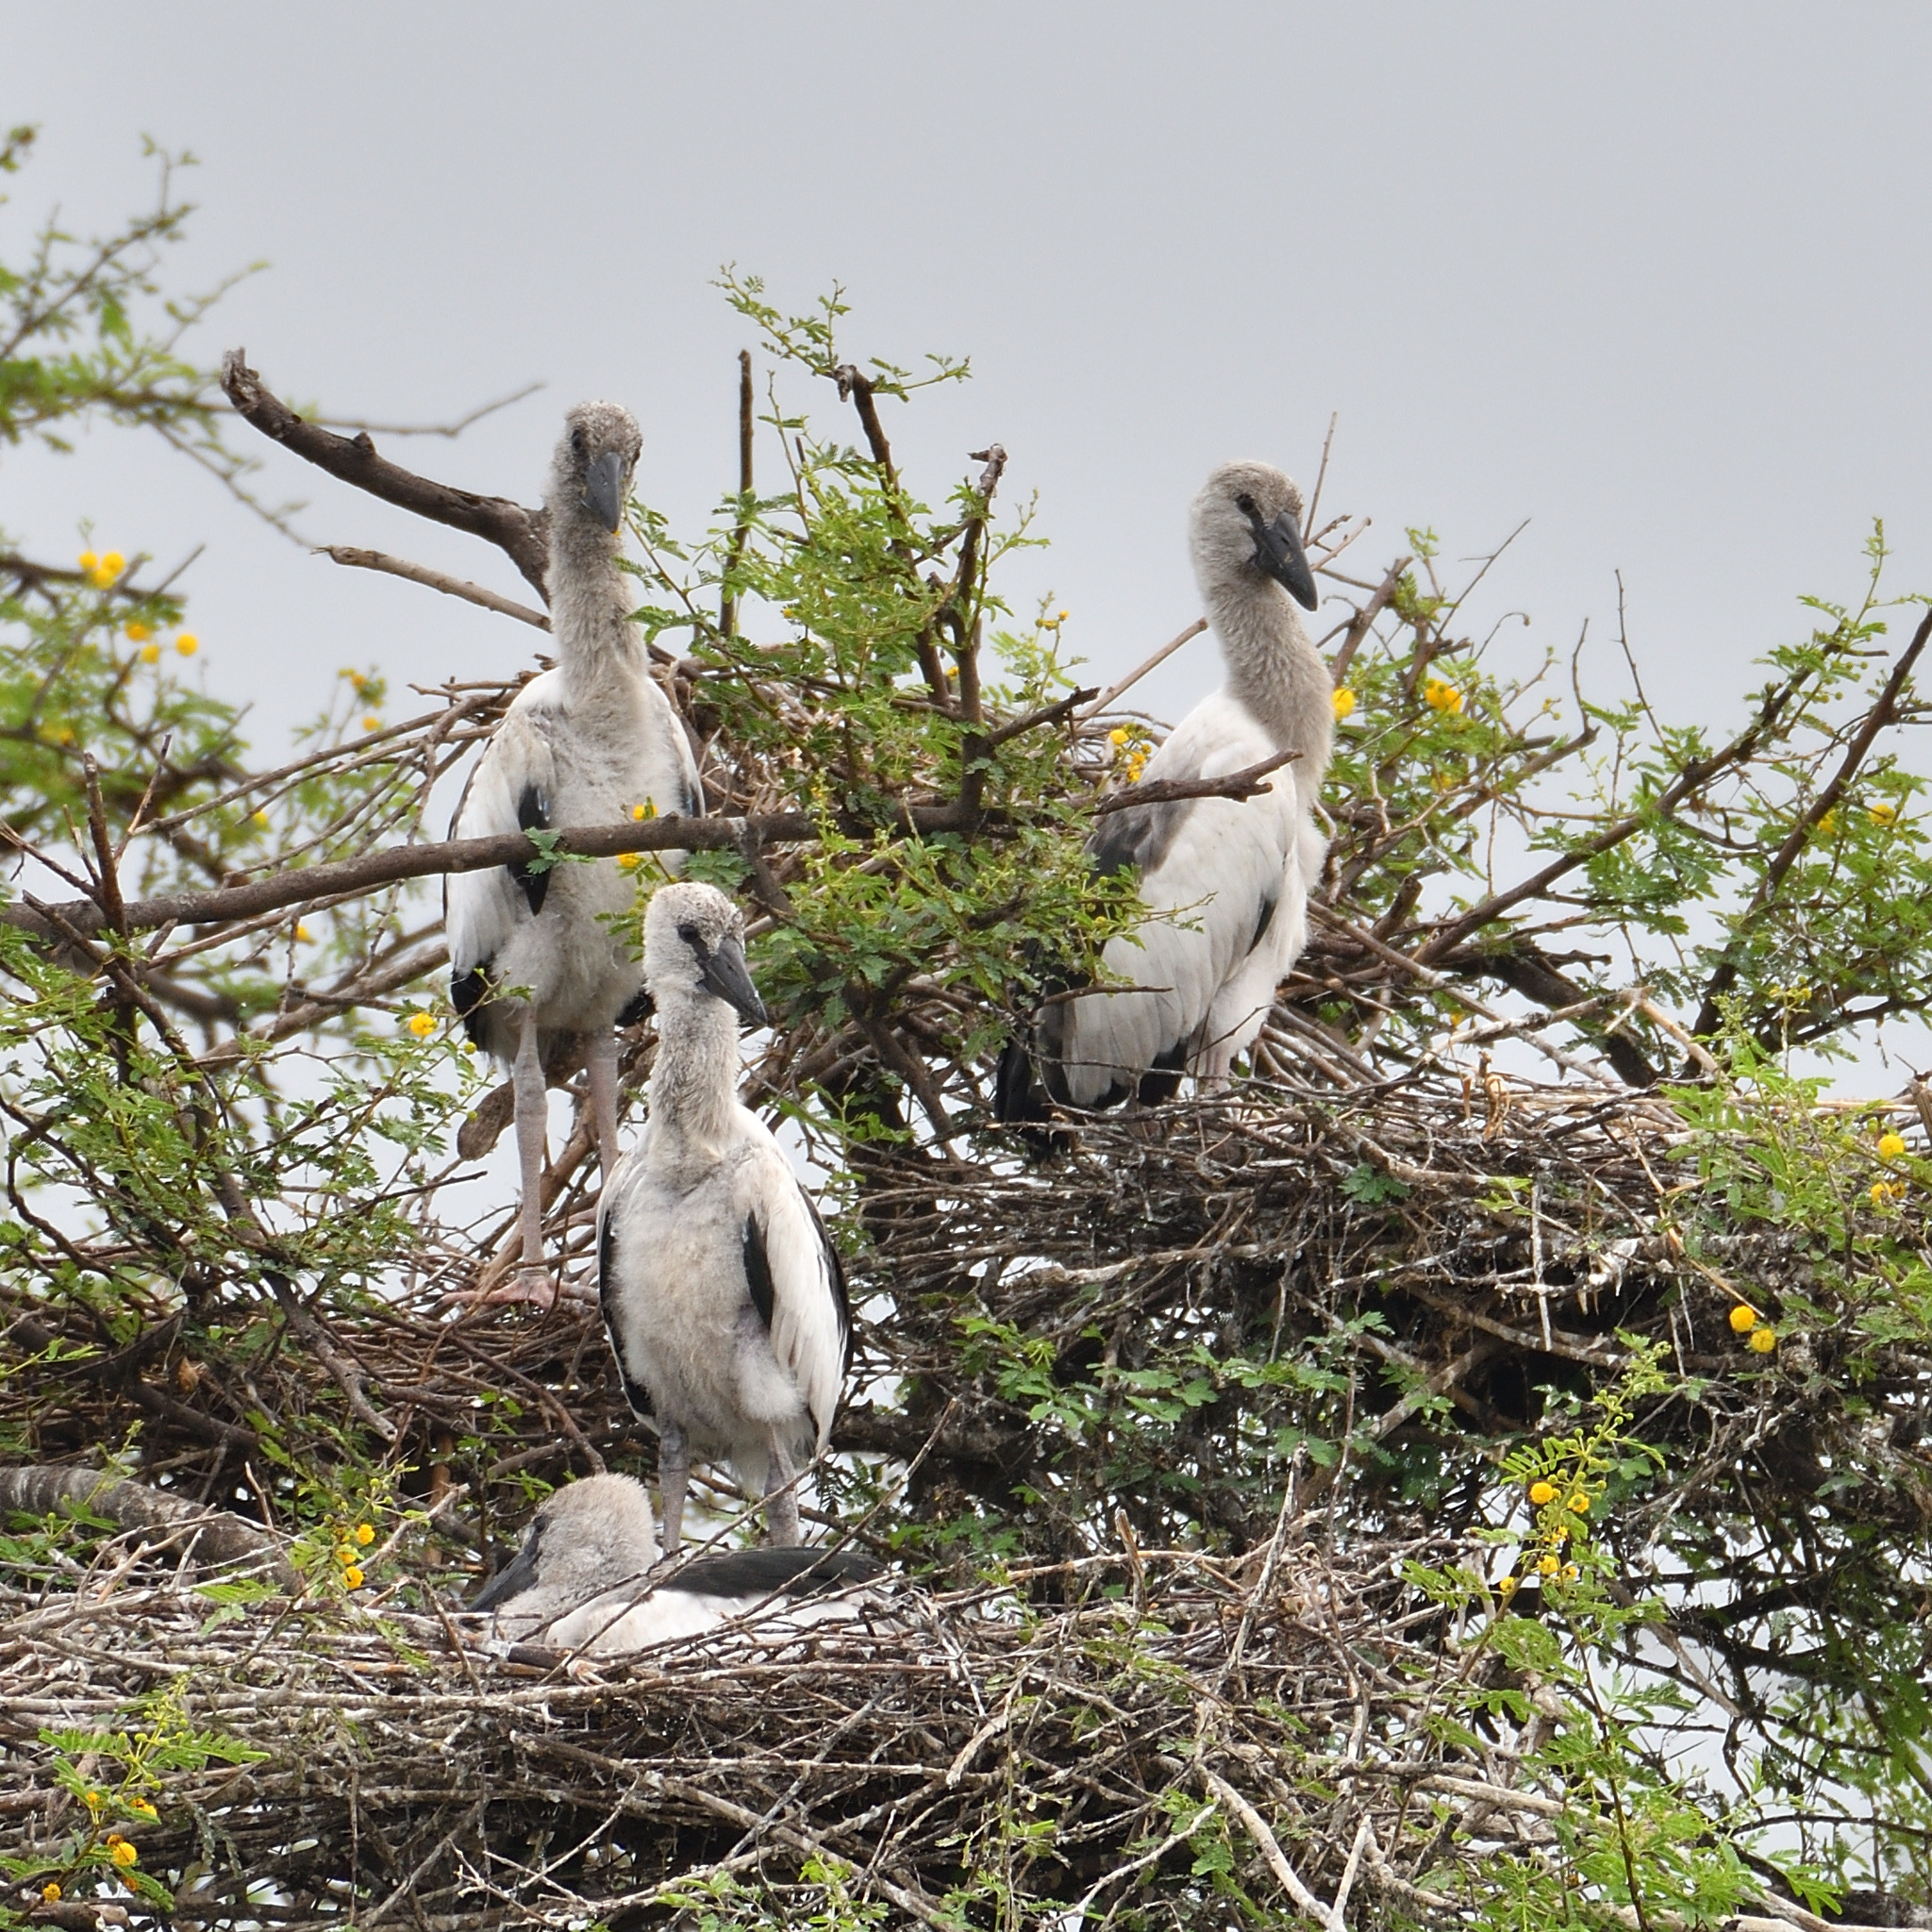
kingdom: Animalia
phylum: Chordata
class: Aves
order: Ciconiiformes
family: Ciconiidae
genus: Anastomus
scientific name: Anastomus oscitans
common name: Asian openbill
